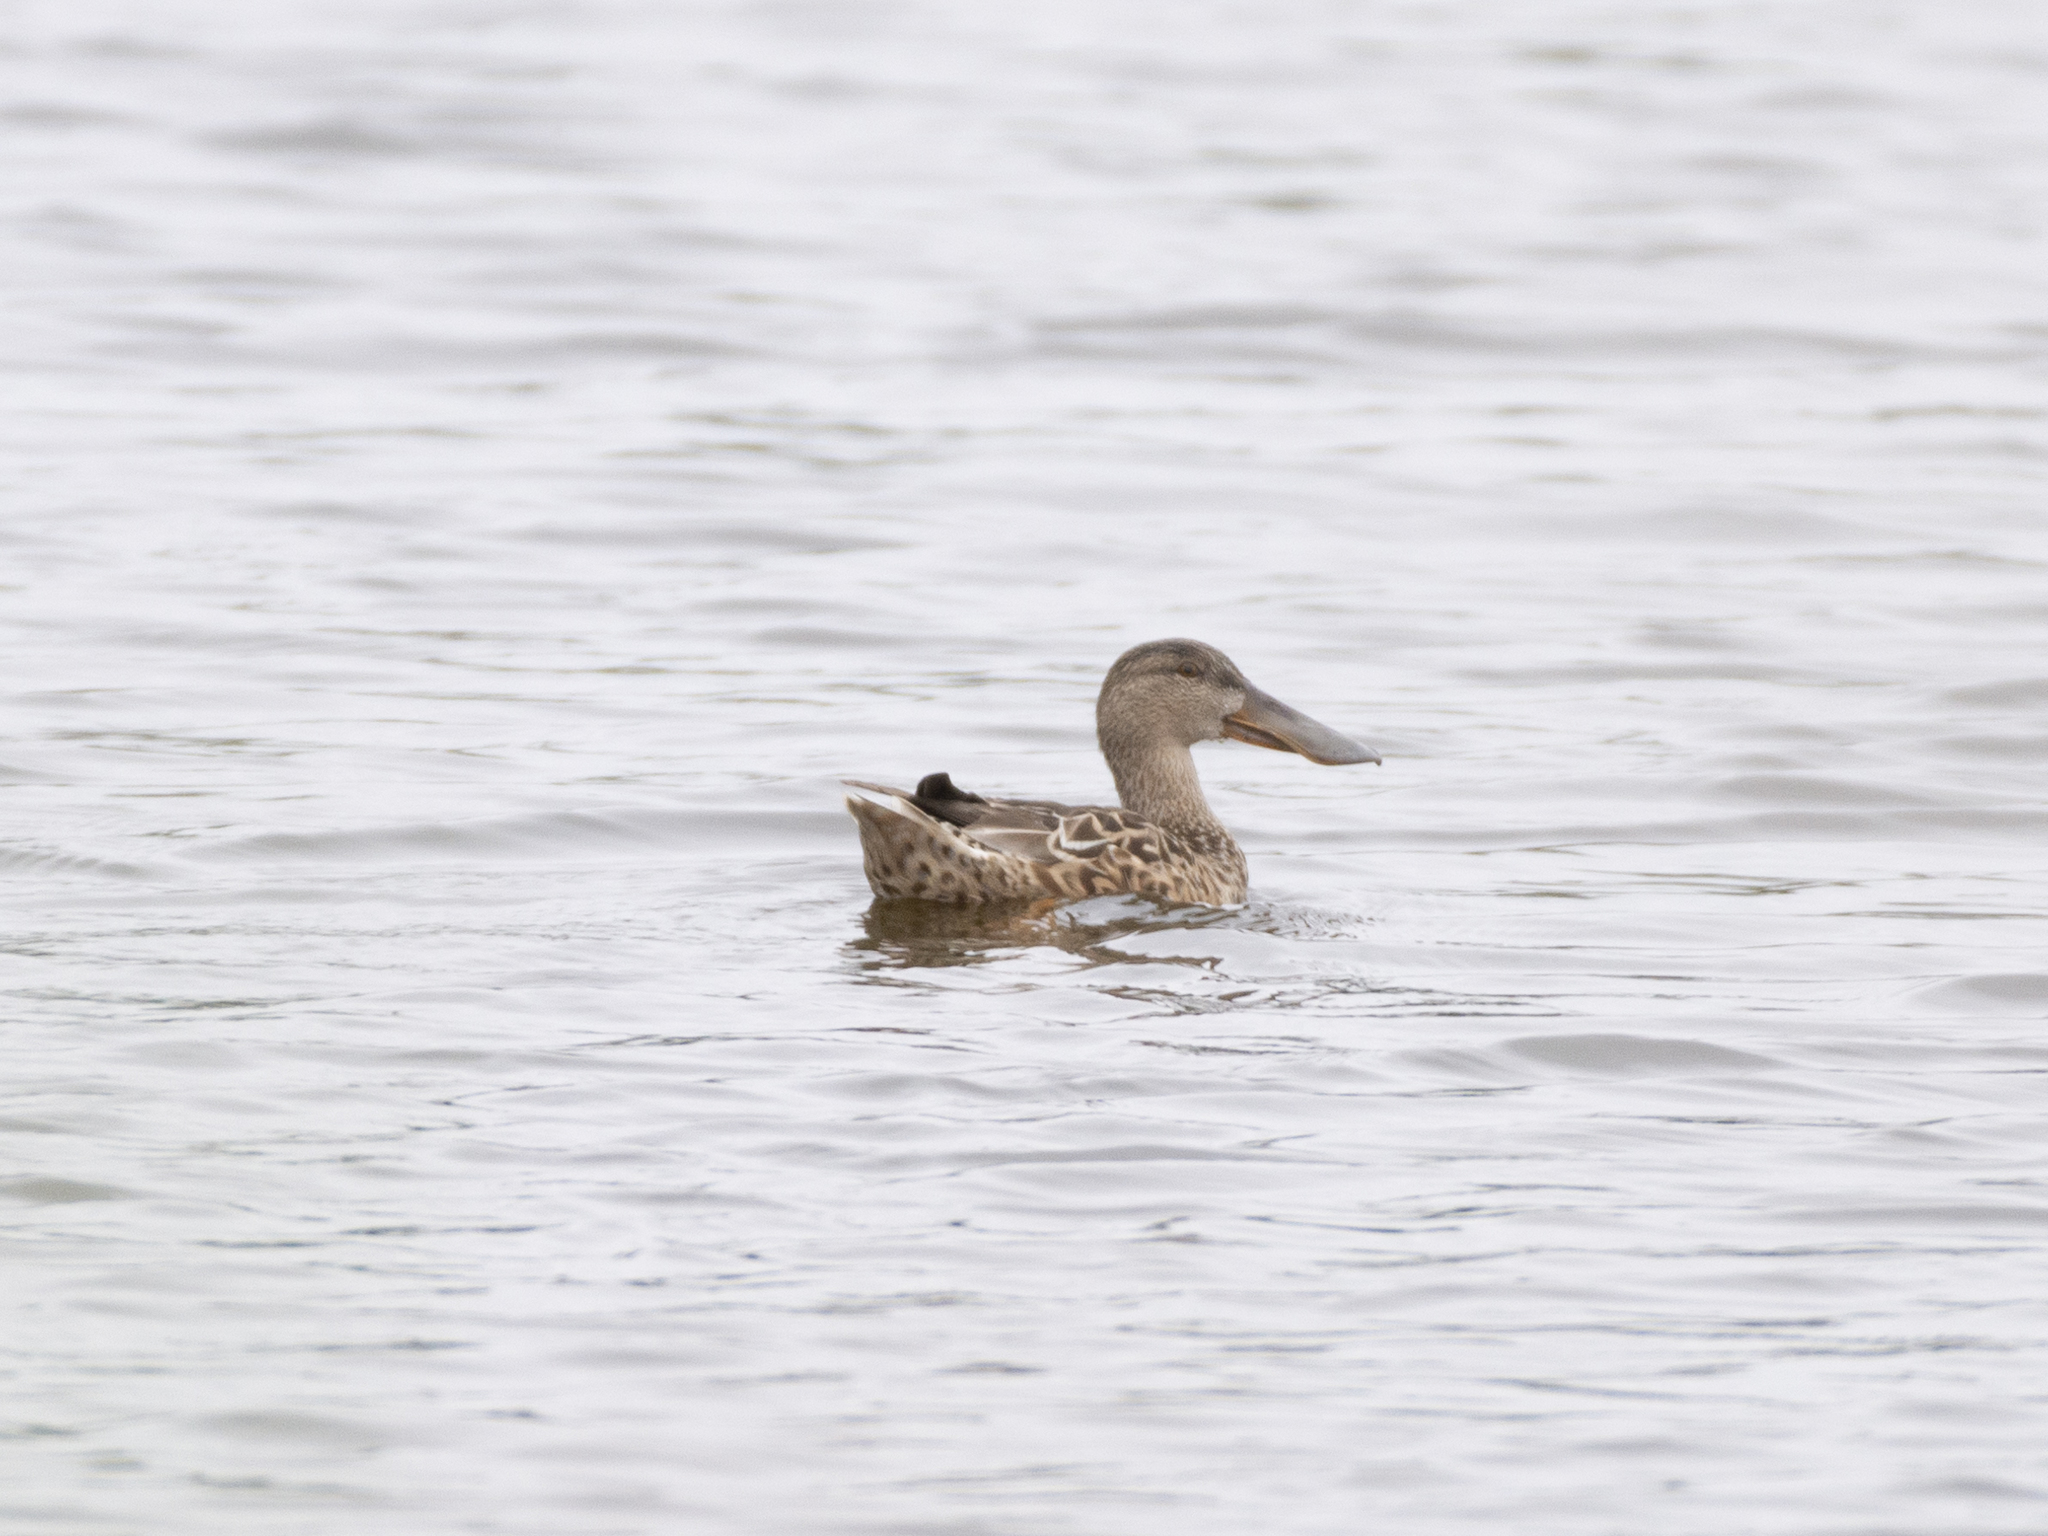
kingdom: Animalia
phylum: Chordata
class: Aves
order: Anseriformes
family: Anatidae
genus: Spatula
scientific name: Spatula clypeata
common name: Northern shoveler
